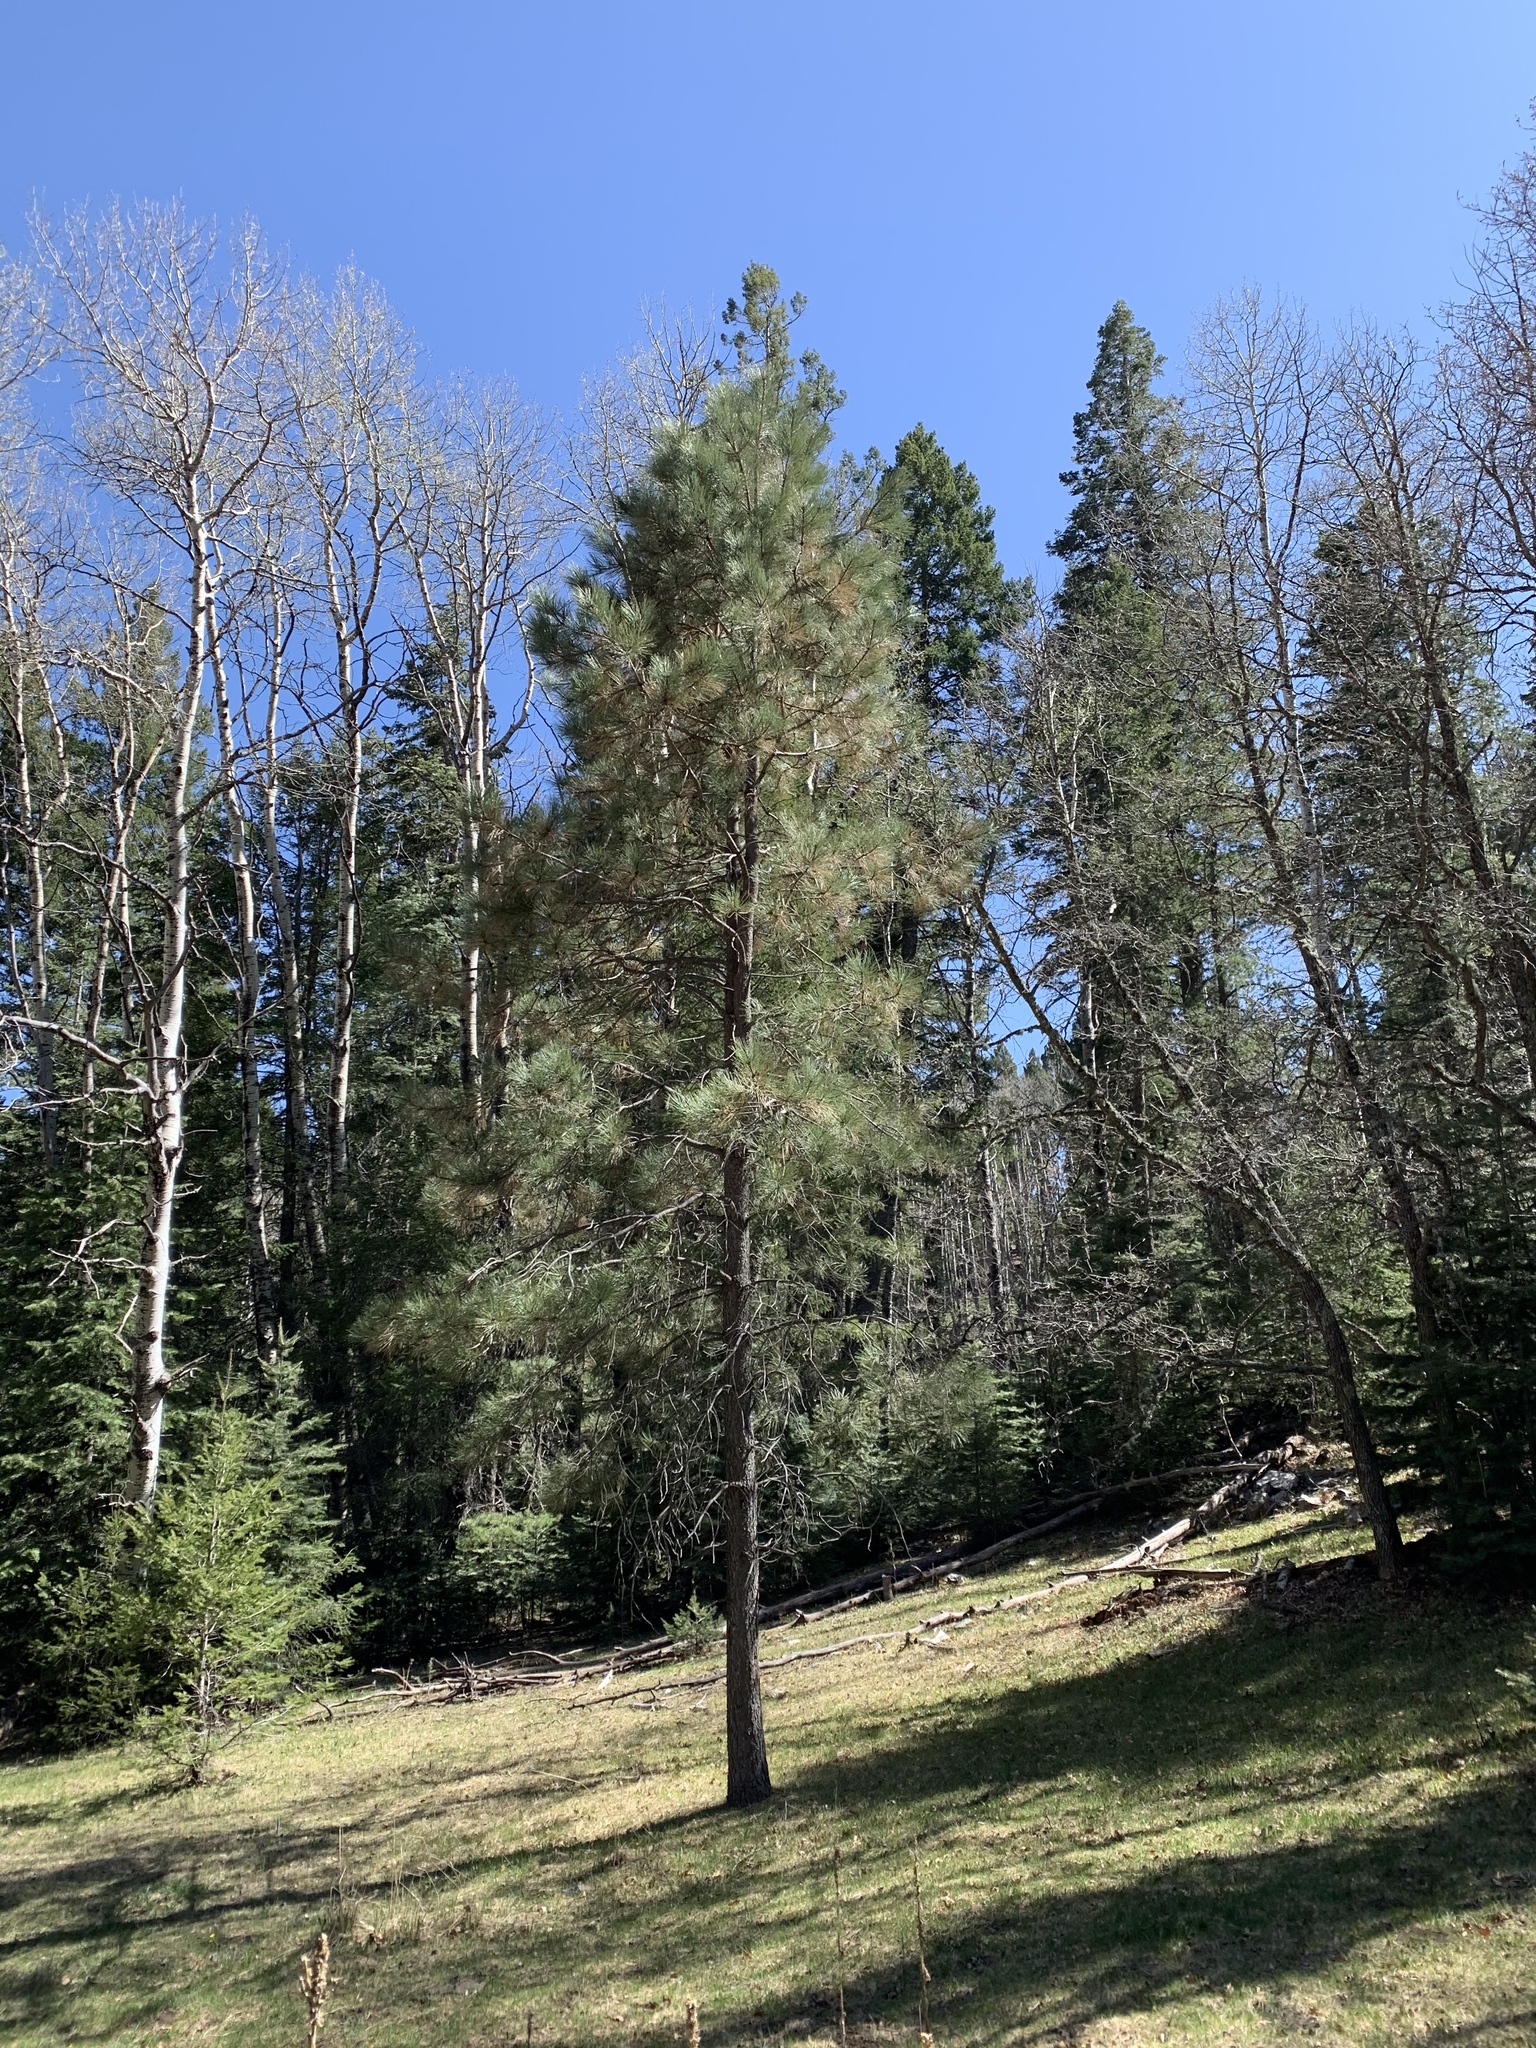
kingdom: Plantae
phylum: Tracheophyta
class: Pinopsida
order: Pinales
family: Pinaceae
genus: Pinus
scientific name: Pinus ponderosa
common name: Western yellow-pine
